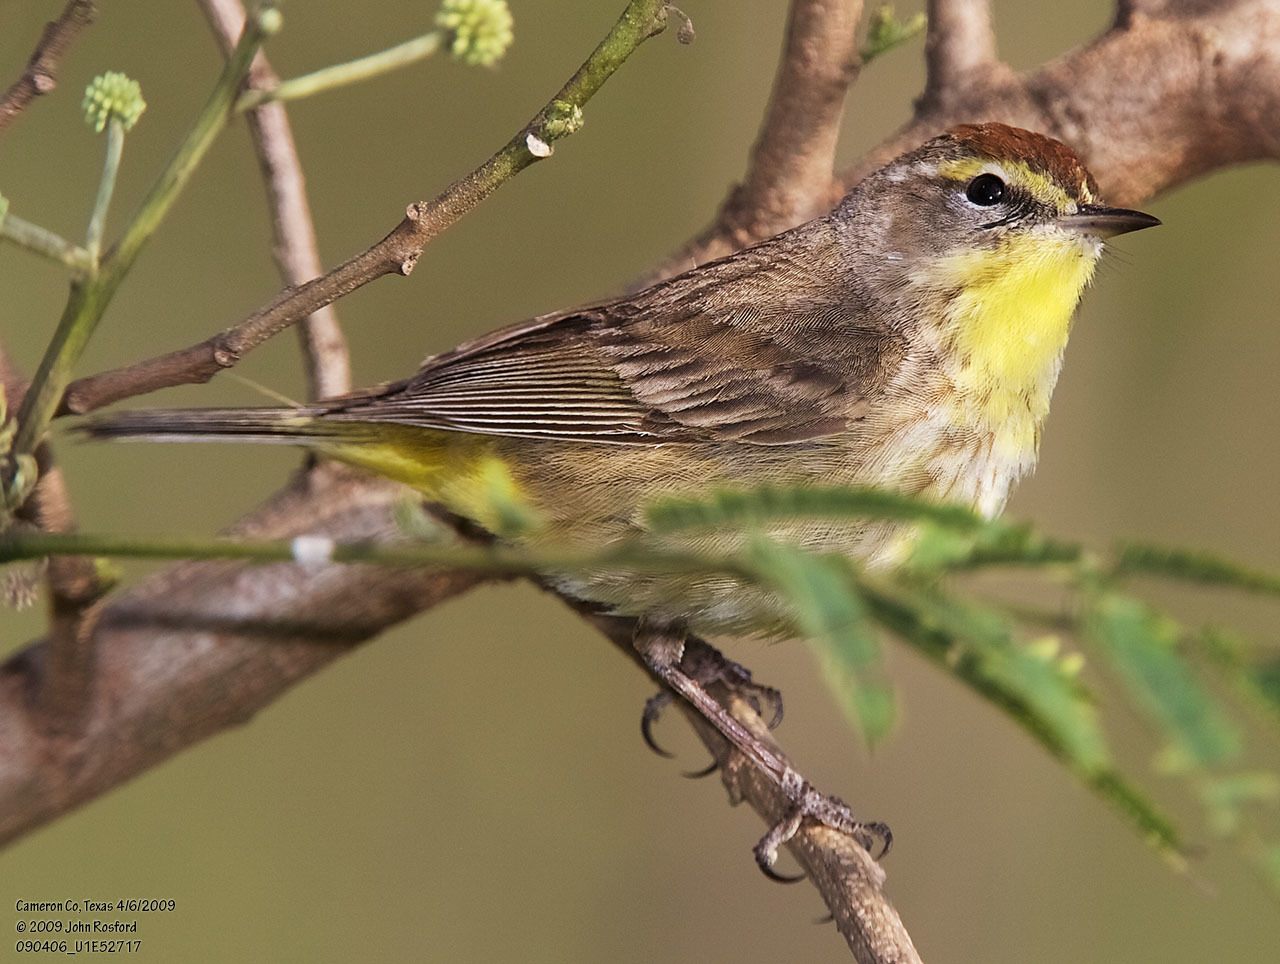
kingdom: Animalia
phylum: Chordata
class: Aves
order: Passeriformes
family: Parulidae
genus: Setophaga
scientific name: Setophaga palmarum
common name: Palm warbler
